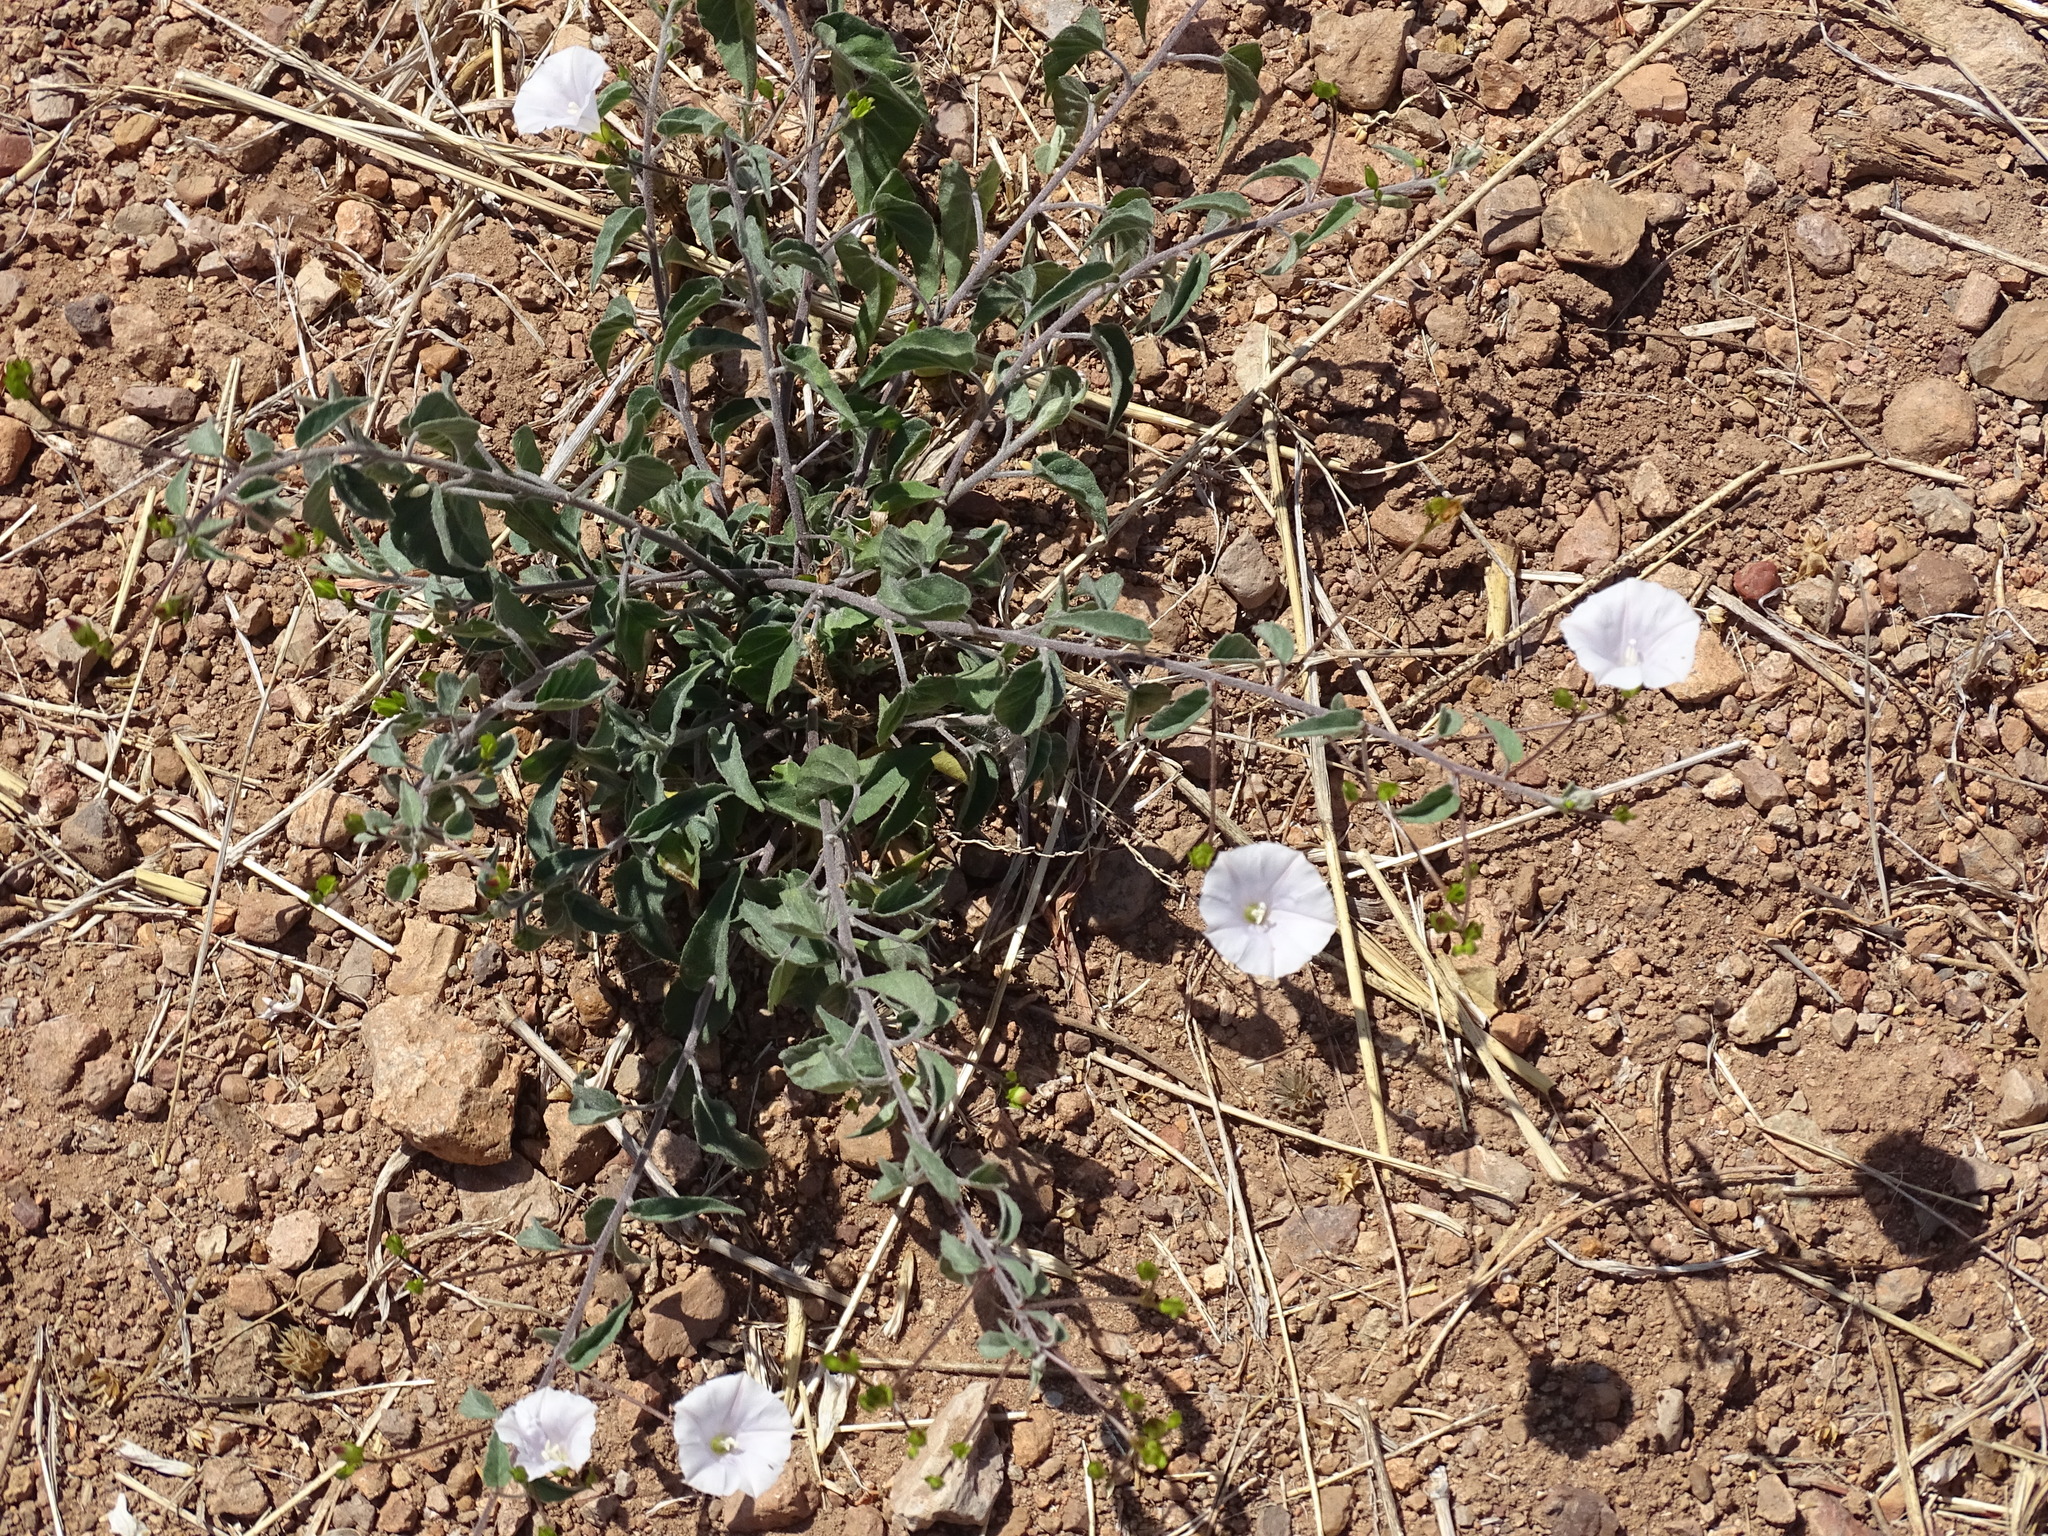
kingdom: Plantae
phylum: Tracheophyta
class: Magnoliopsida
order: Solanales
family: Convolvulaceae
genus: Jacquemontia
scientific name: Jacquemontia pringlei
